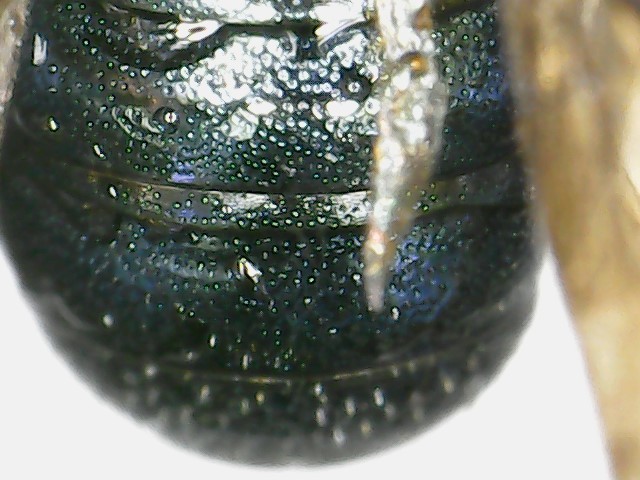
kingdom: Animalia
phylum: Arthropoda
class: Insecta
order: Hymenoptera
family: Apidae
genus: Ceratina
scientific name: Ceratina calcarata
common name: Spurred carpenter bee
